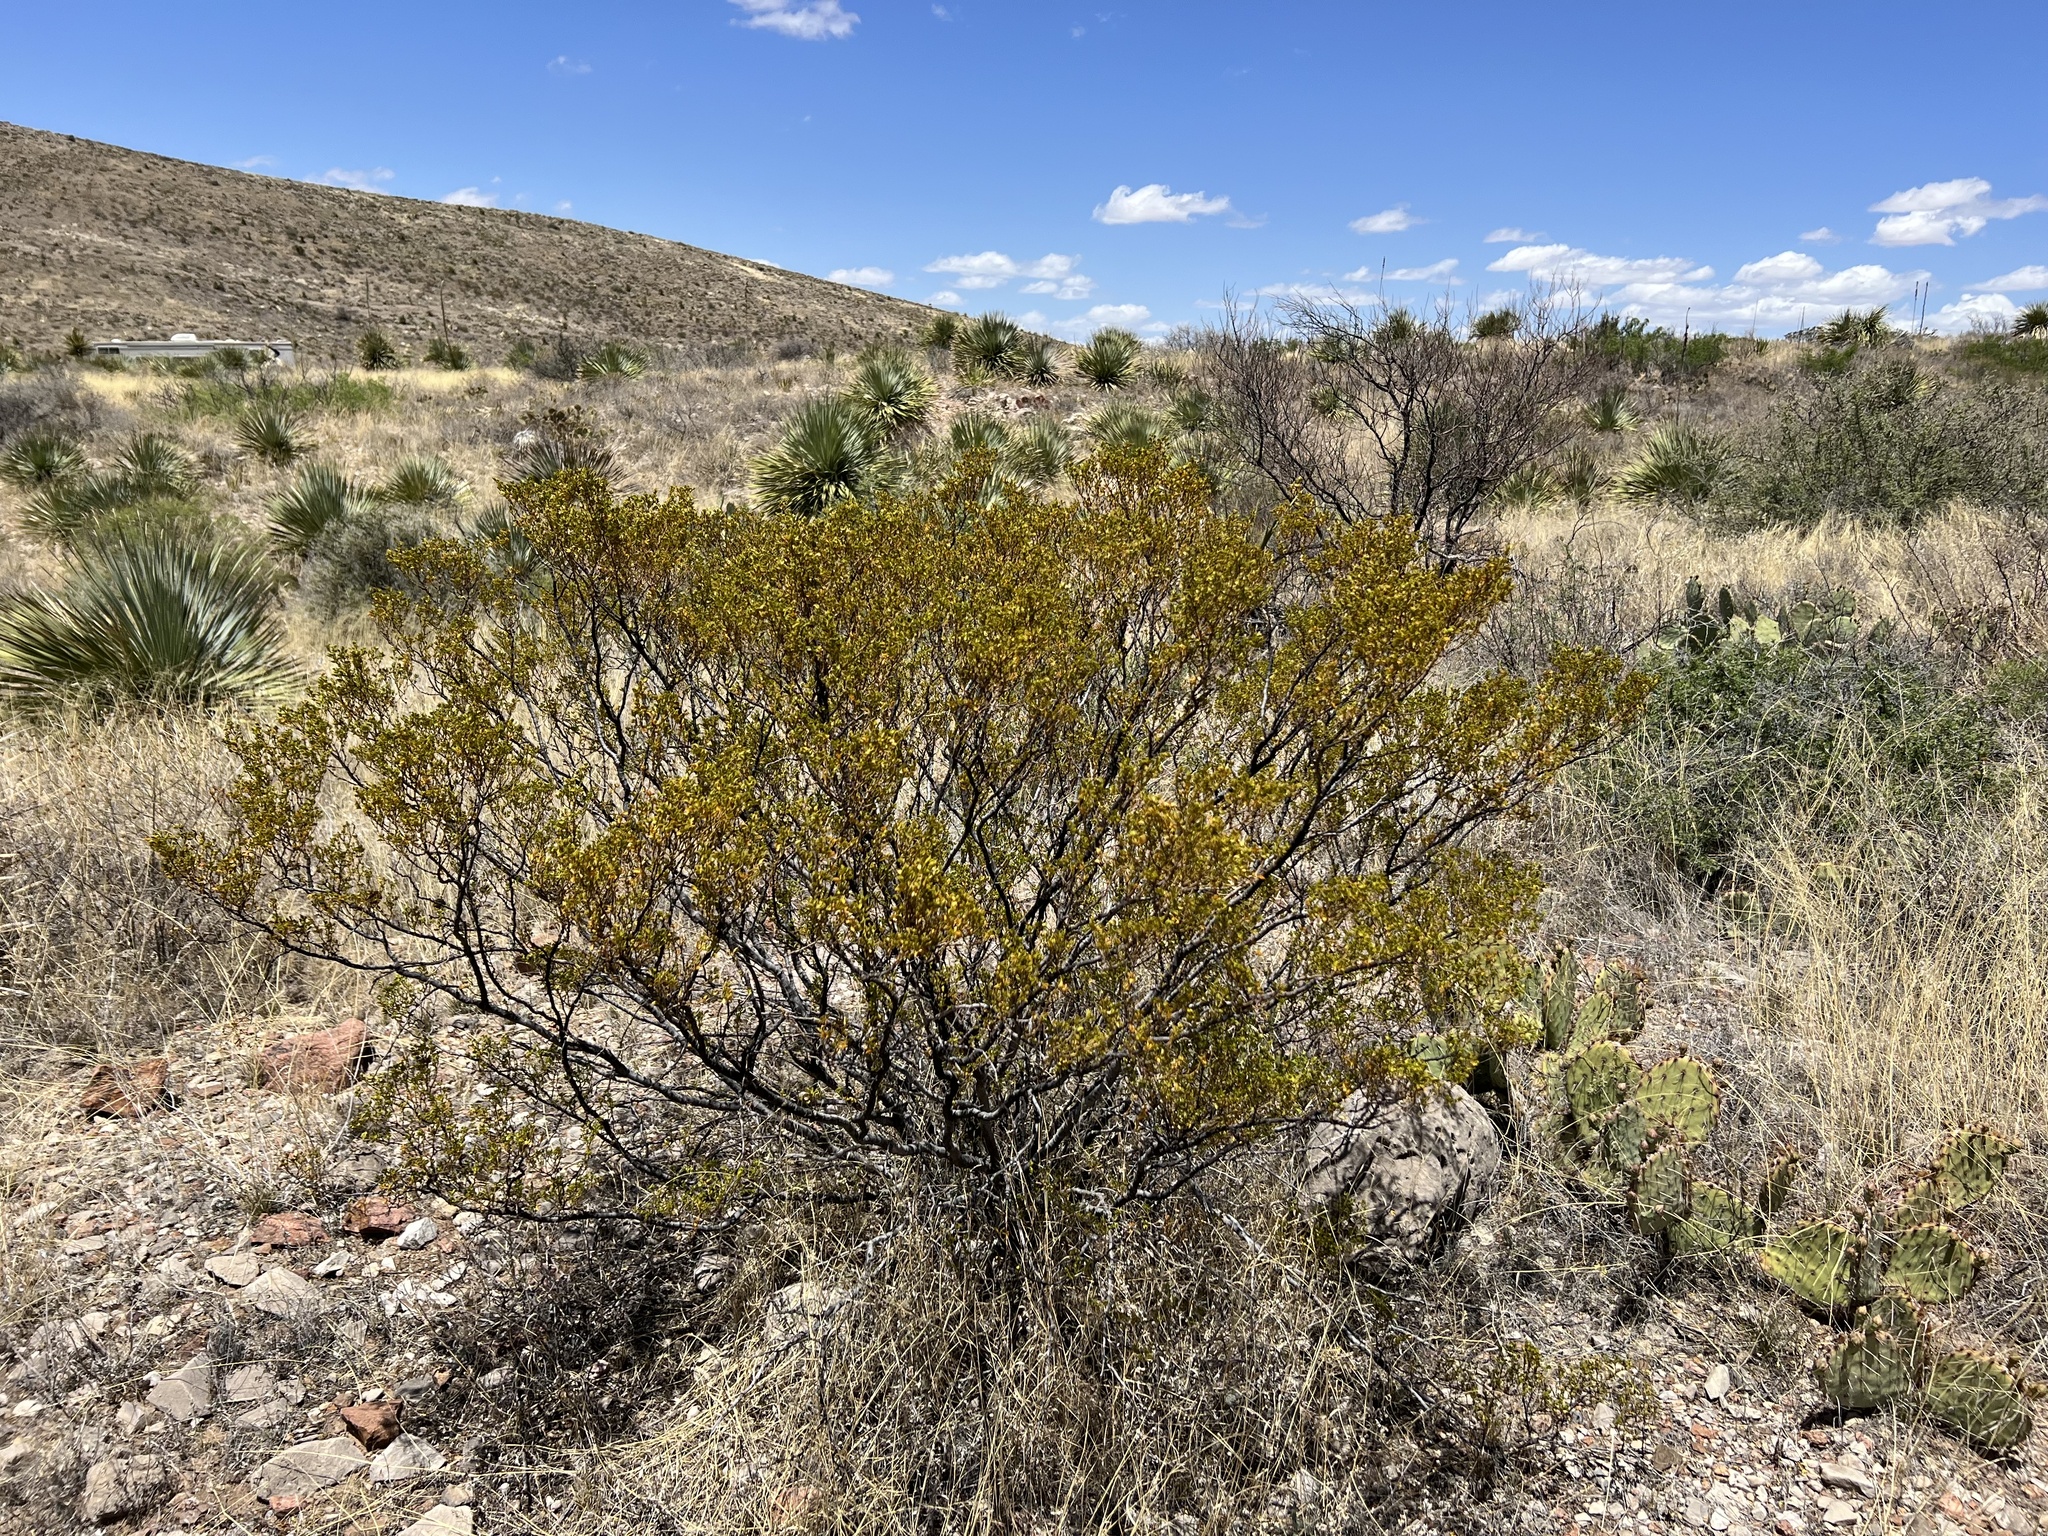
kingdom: Plantae
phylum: Tracheophyta
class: Magnoliopsida
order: Zygophyllales
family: Zygophyllaceae
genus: Larrea
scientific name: Larrea tridentata
